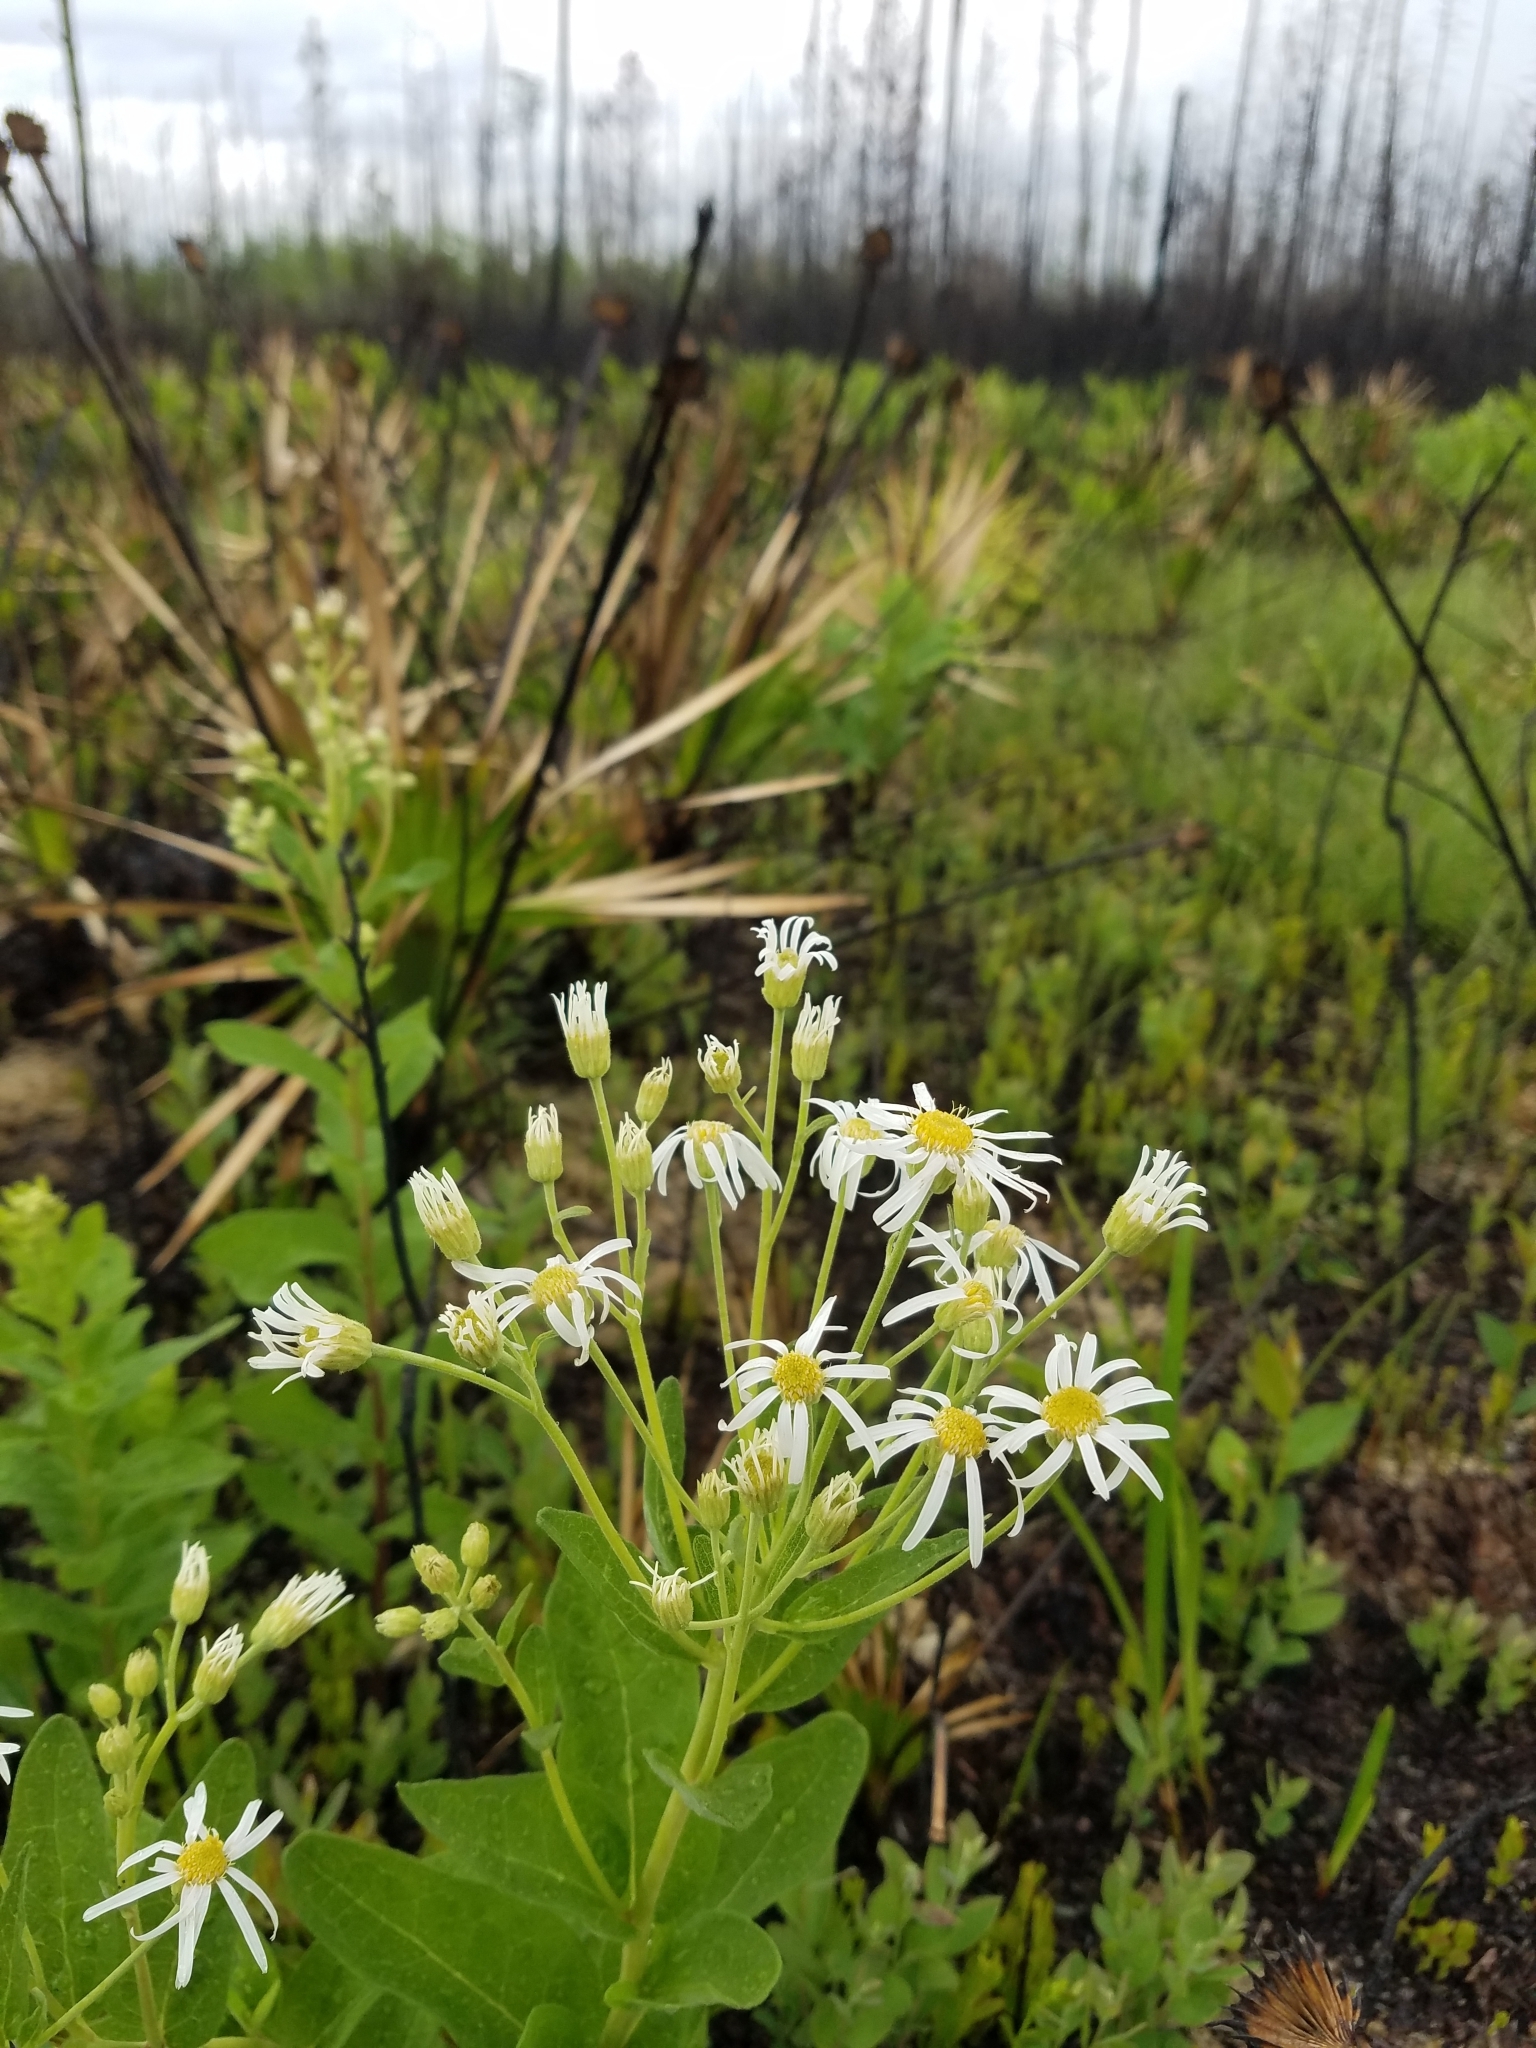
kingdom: Plantae
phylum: Tracheophyta
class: Magnoliopsida
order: Asterales
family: Asteraceae
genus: Oclemena
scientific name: Oclemena reticulata
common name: Pinebarren aster
